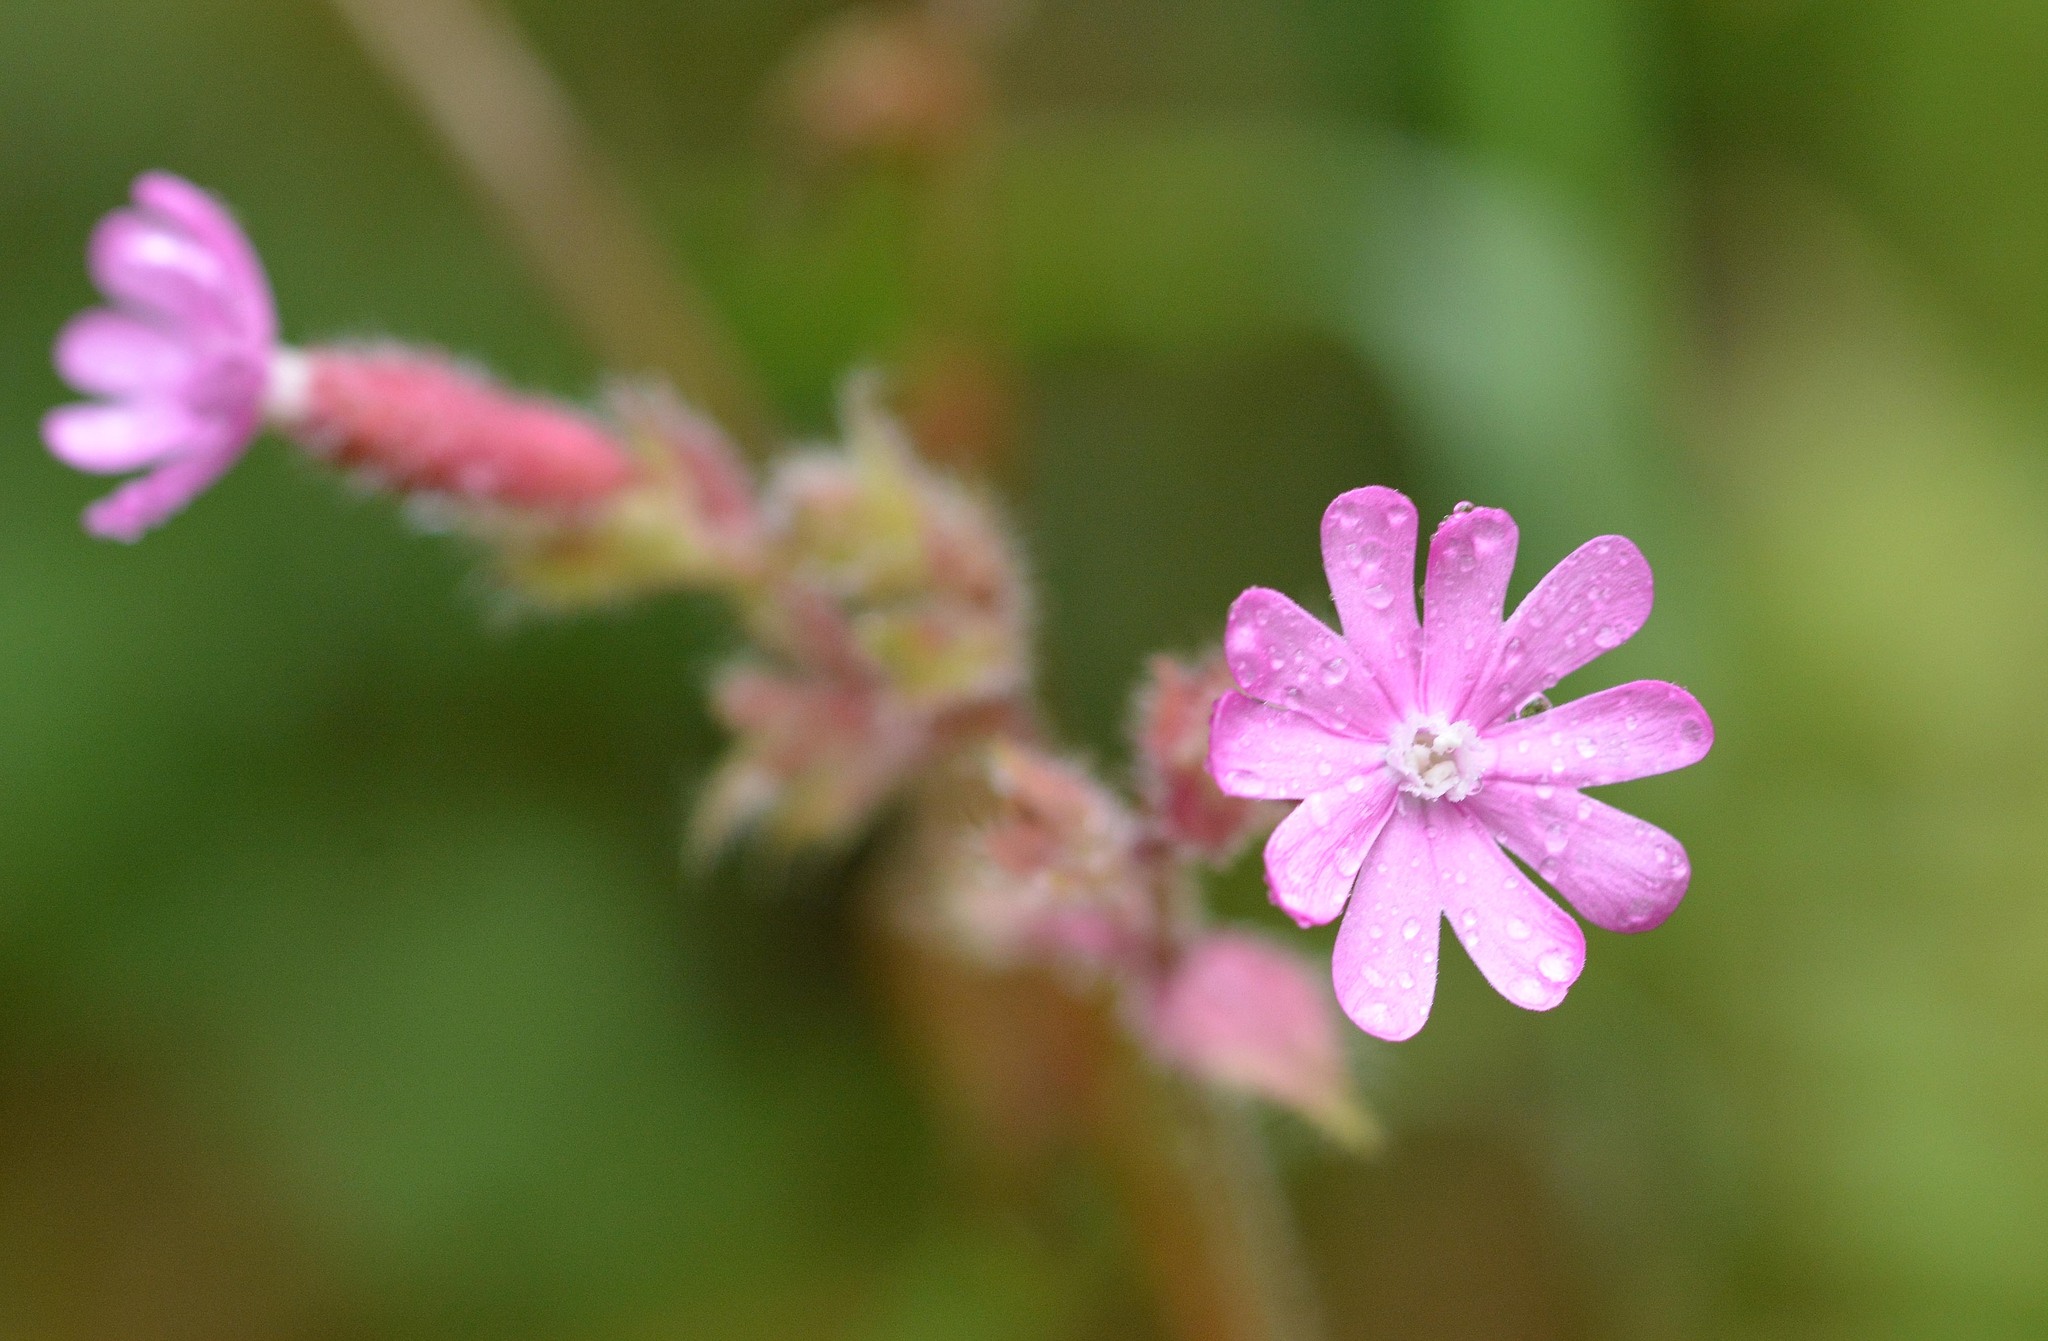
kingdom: Plantae
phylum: Tracheophyta
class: Magnoliopsida
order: Caryophyllales
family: Caryophyllaceae
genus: Silene
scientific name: Silene dioica
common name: Red campion
